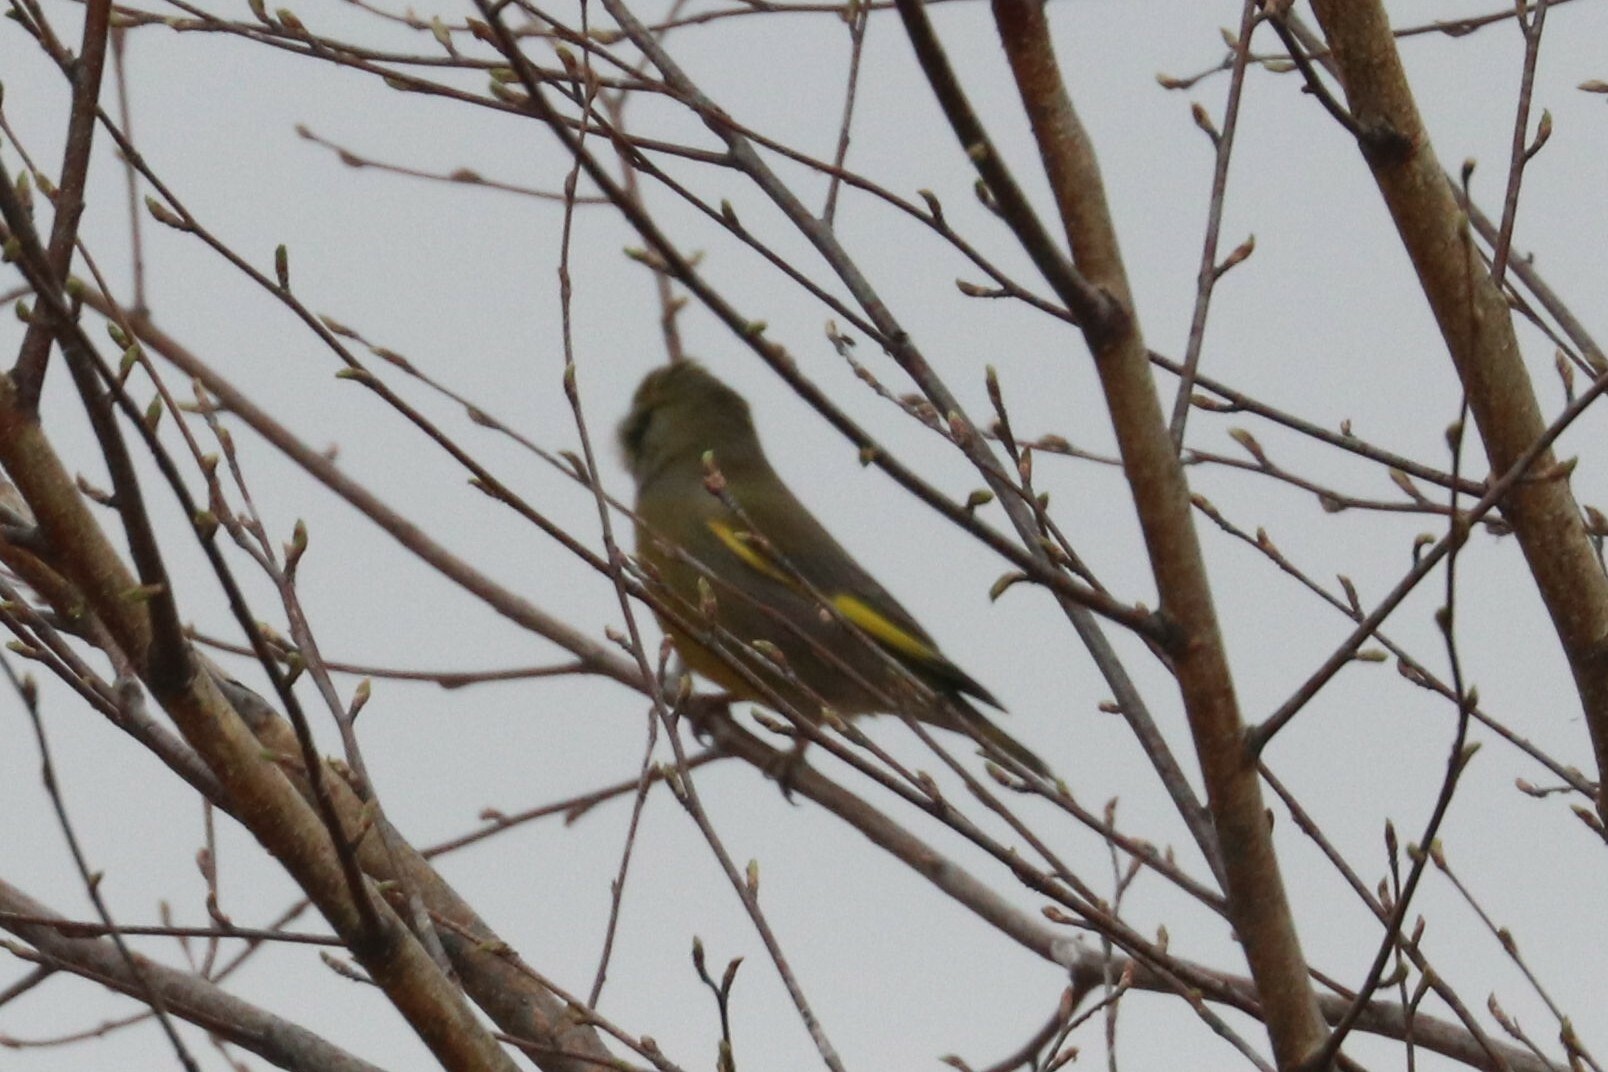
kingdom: Plantae
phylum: Tracheophyta
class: Liliopsida
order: Poales
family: Poaceae
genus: Chloris
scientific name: Chloris chloris
